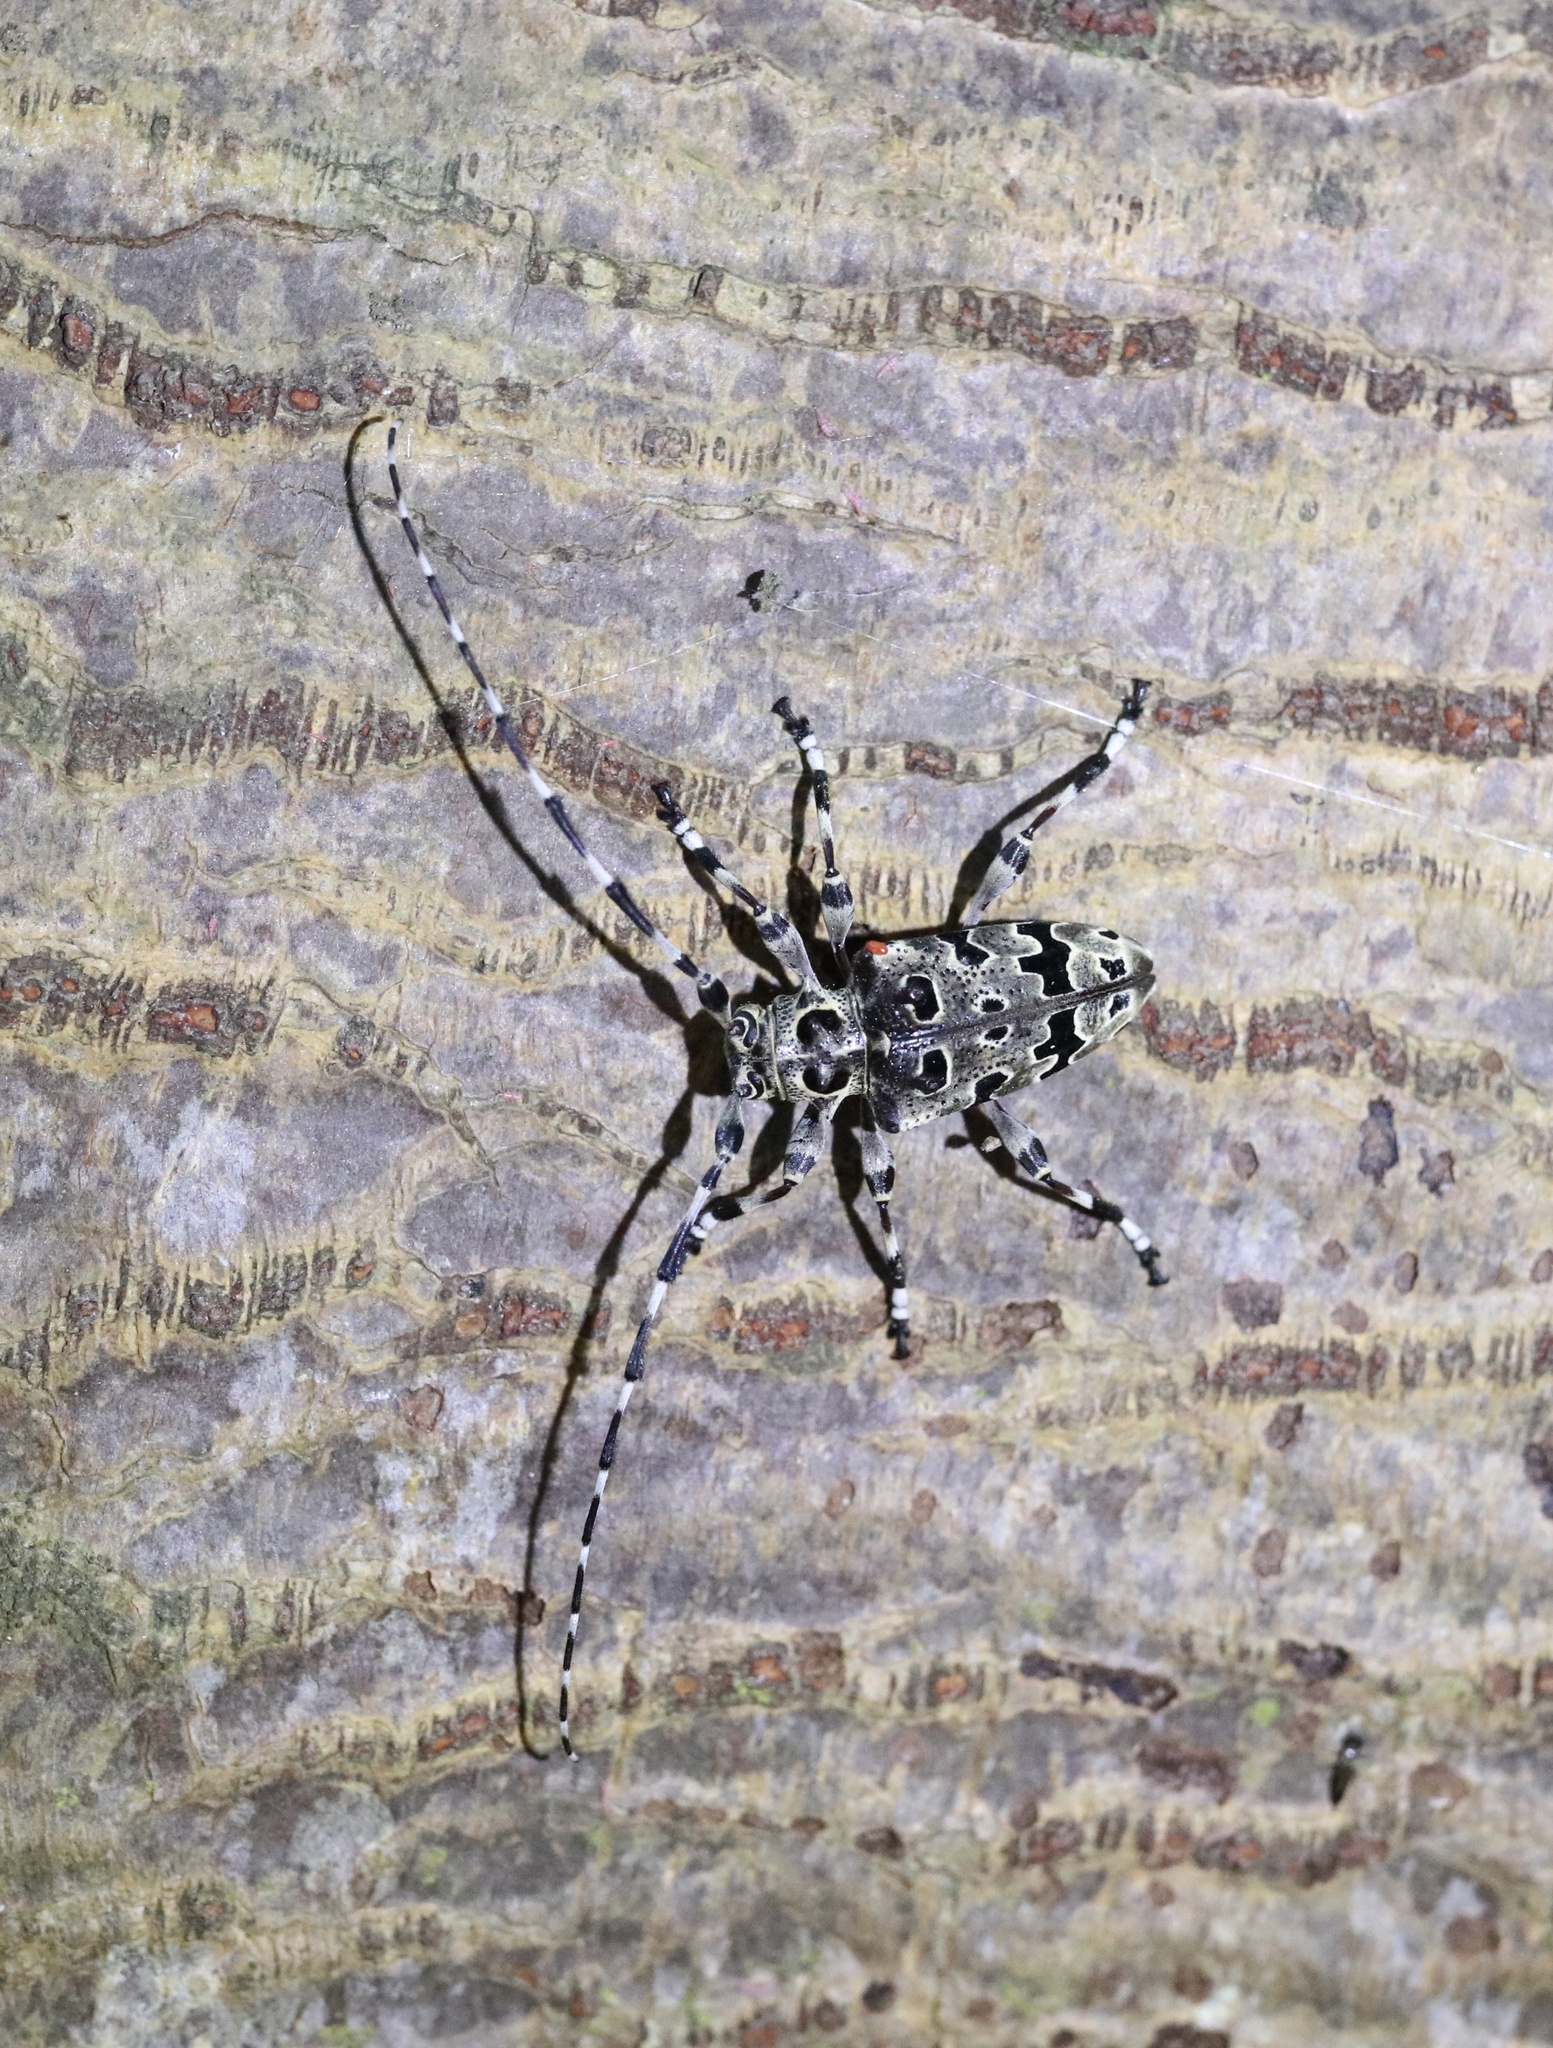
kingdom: Animalia
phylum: Arthropoda
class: Insecta
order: Coleoptera
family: Cerambycidae
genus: Azygocera
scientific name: Azygocera picturata
